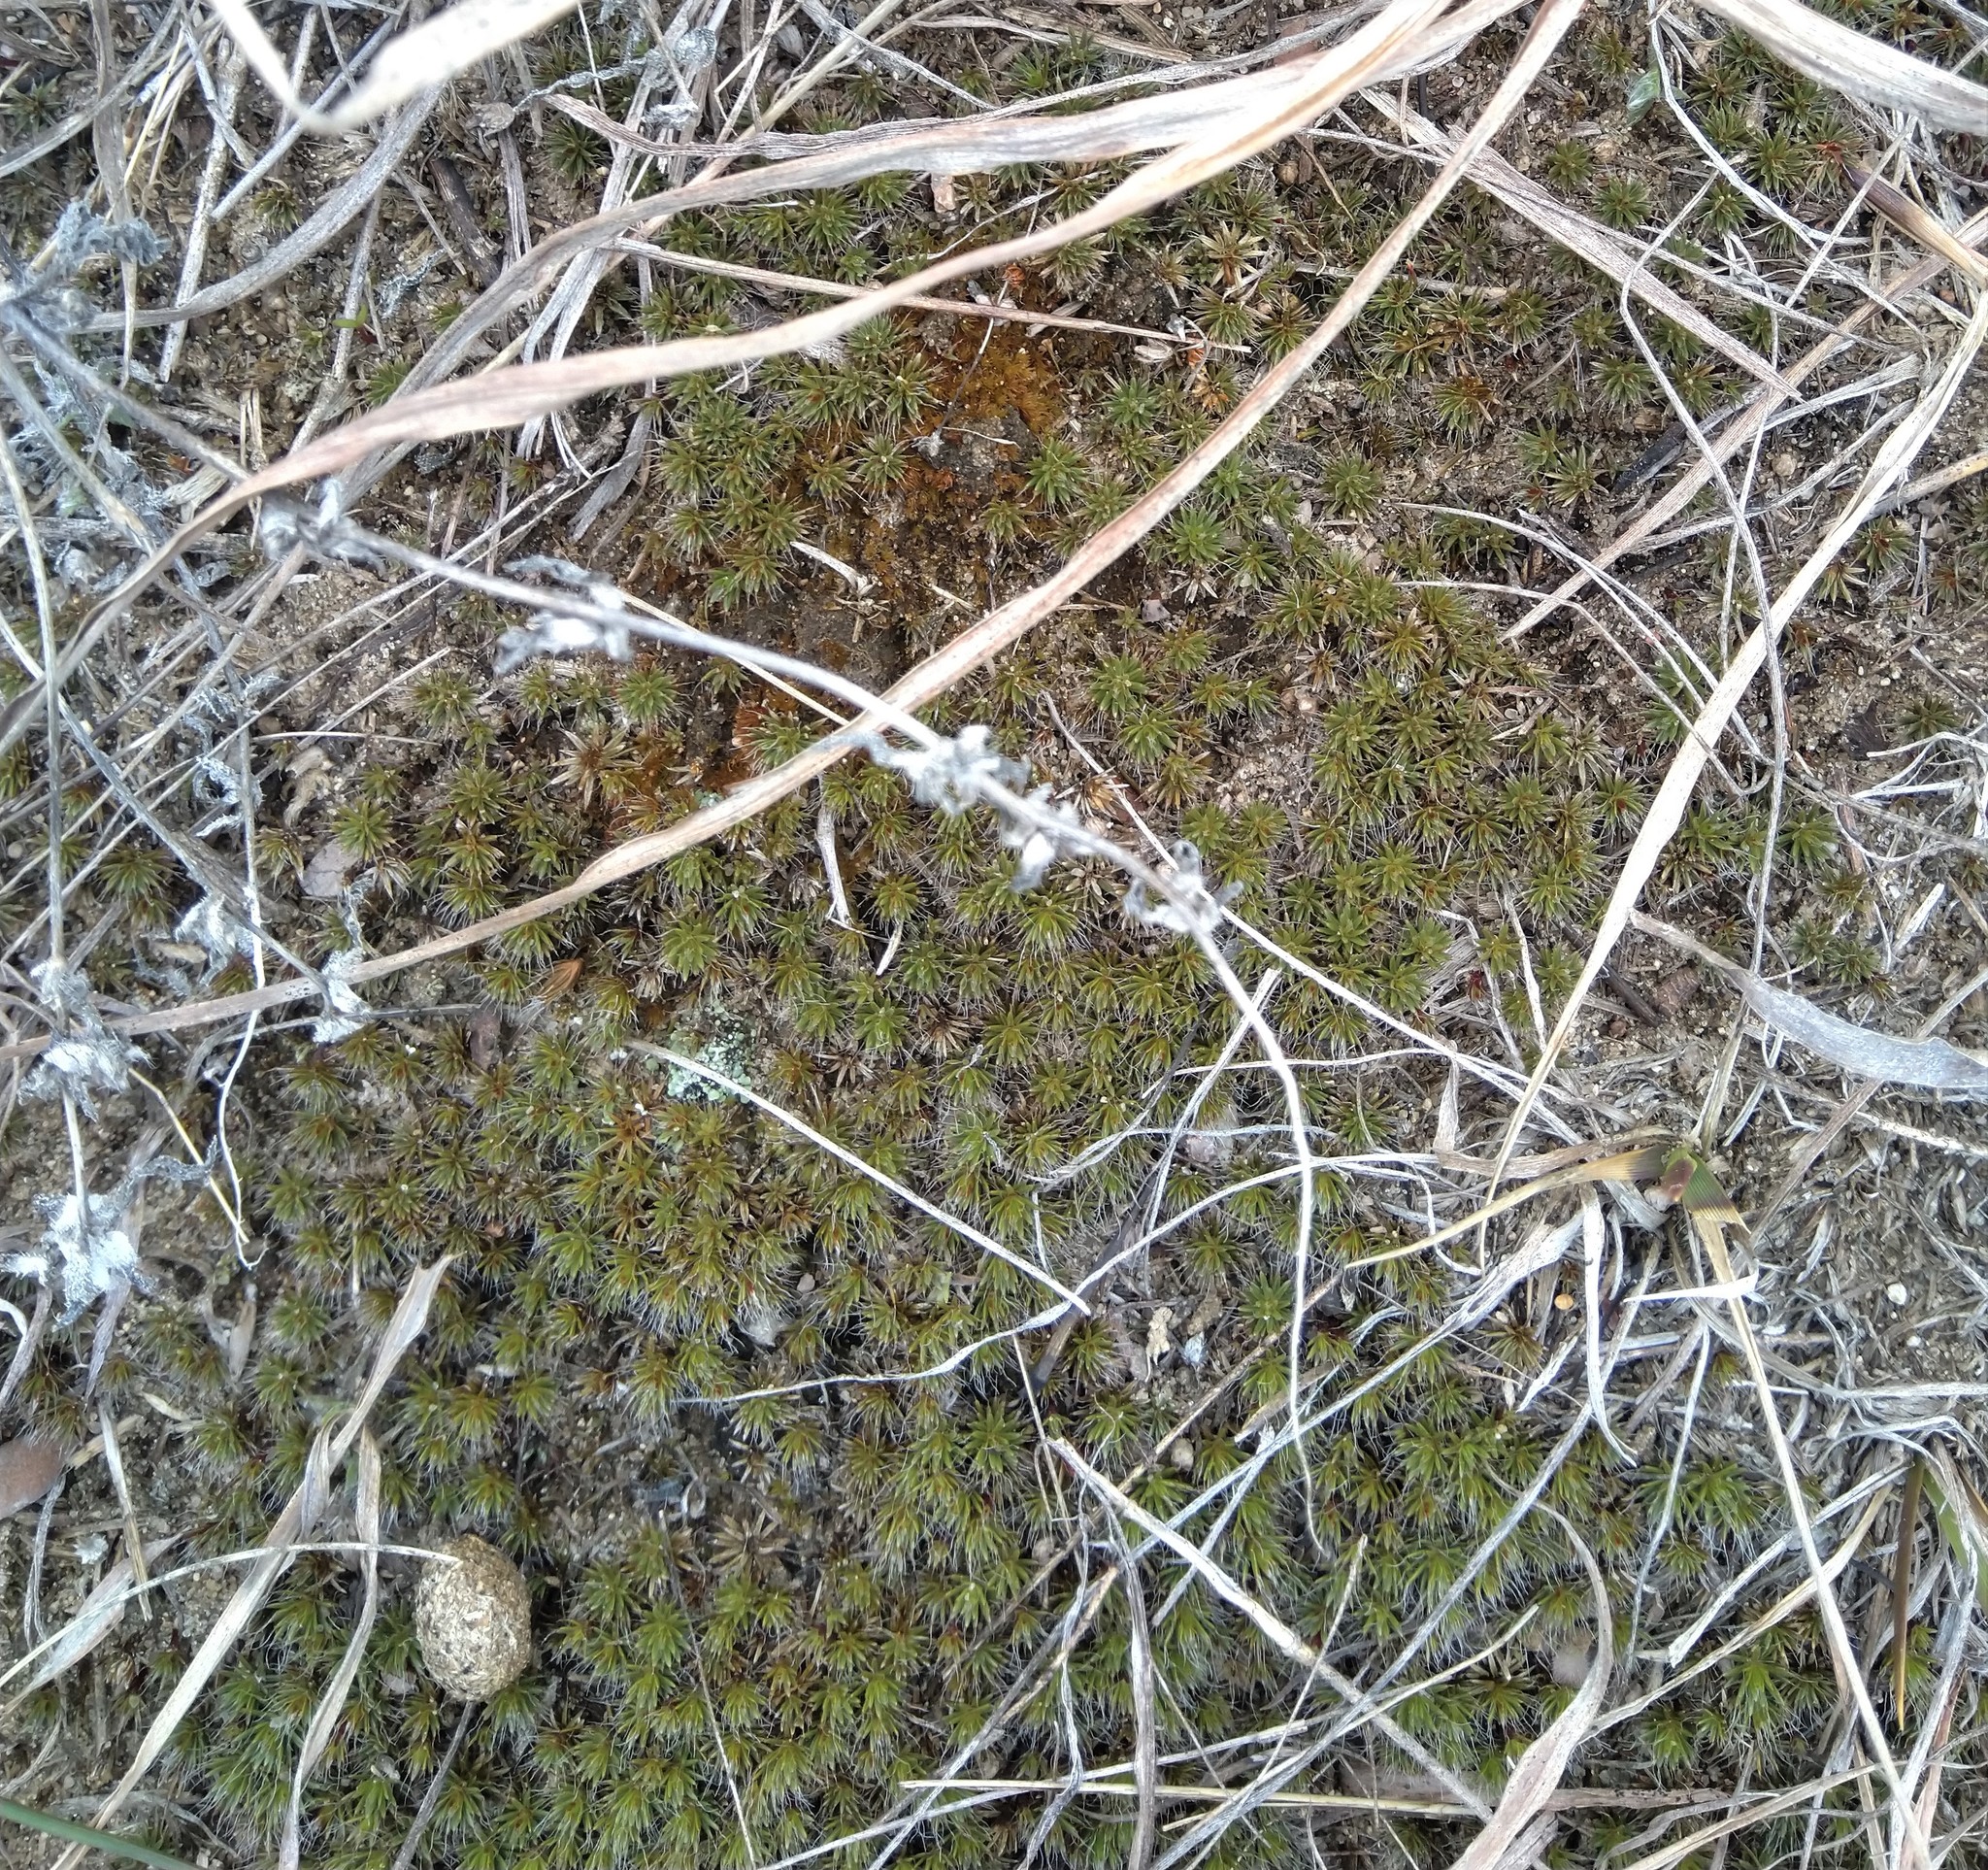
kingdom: Plantae
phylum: Bryophyta
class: Polytrichopsida
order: Polytrichales
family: Polytrichaceae
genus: Polytrichum
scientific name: Polytrichum piliferum
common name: Bristly haircap
